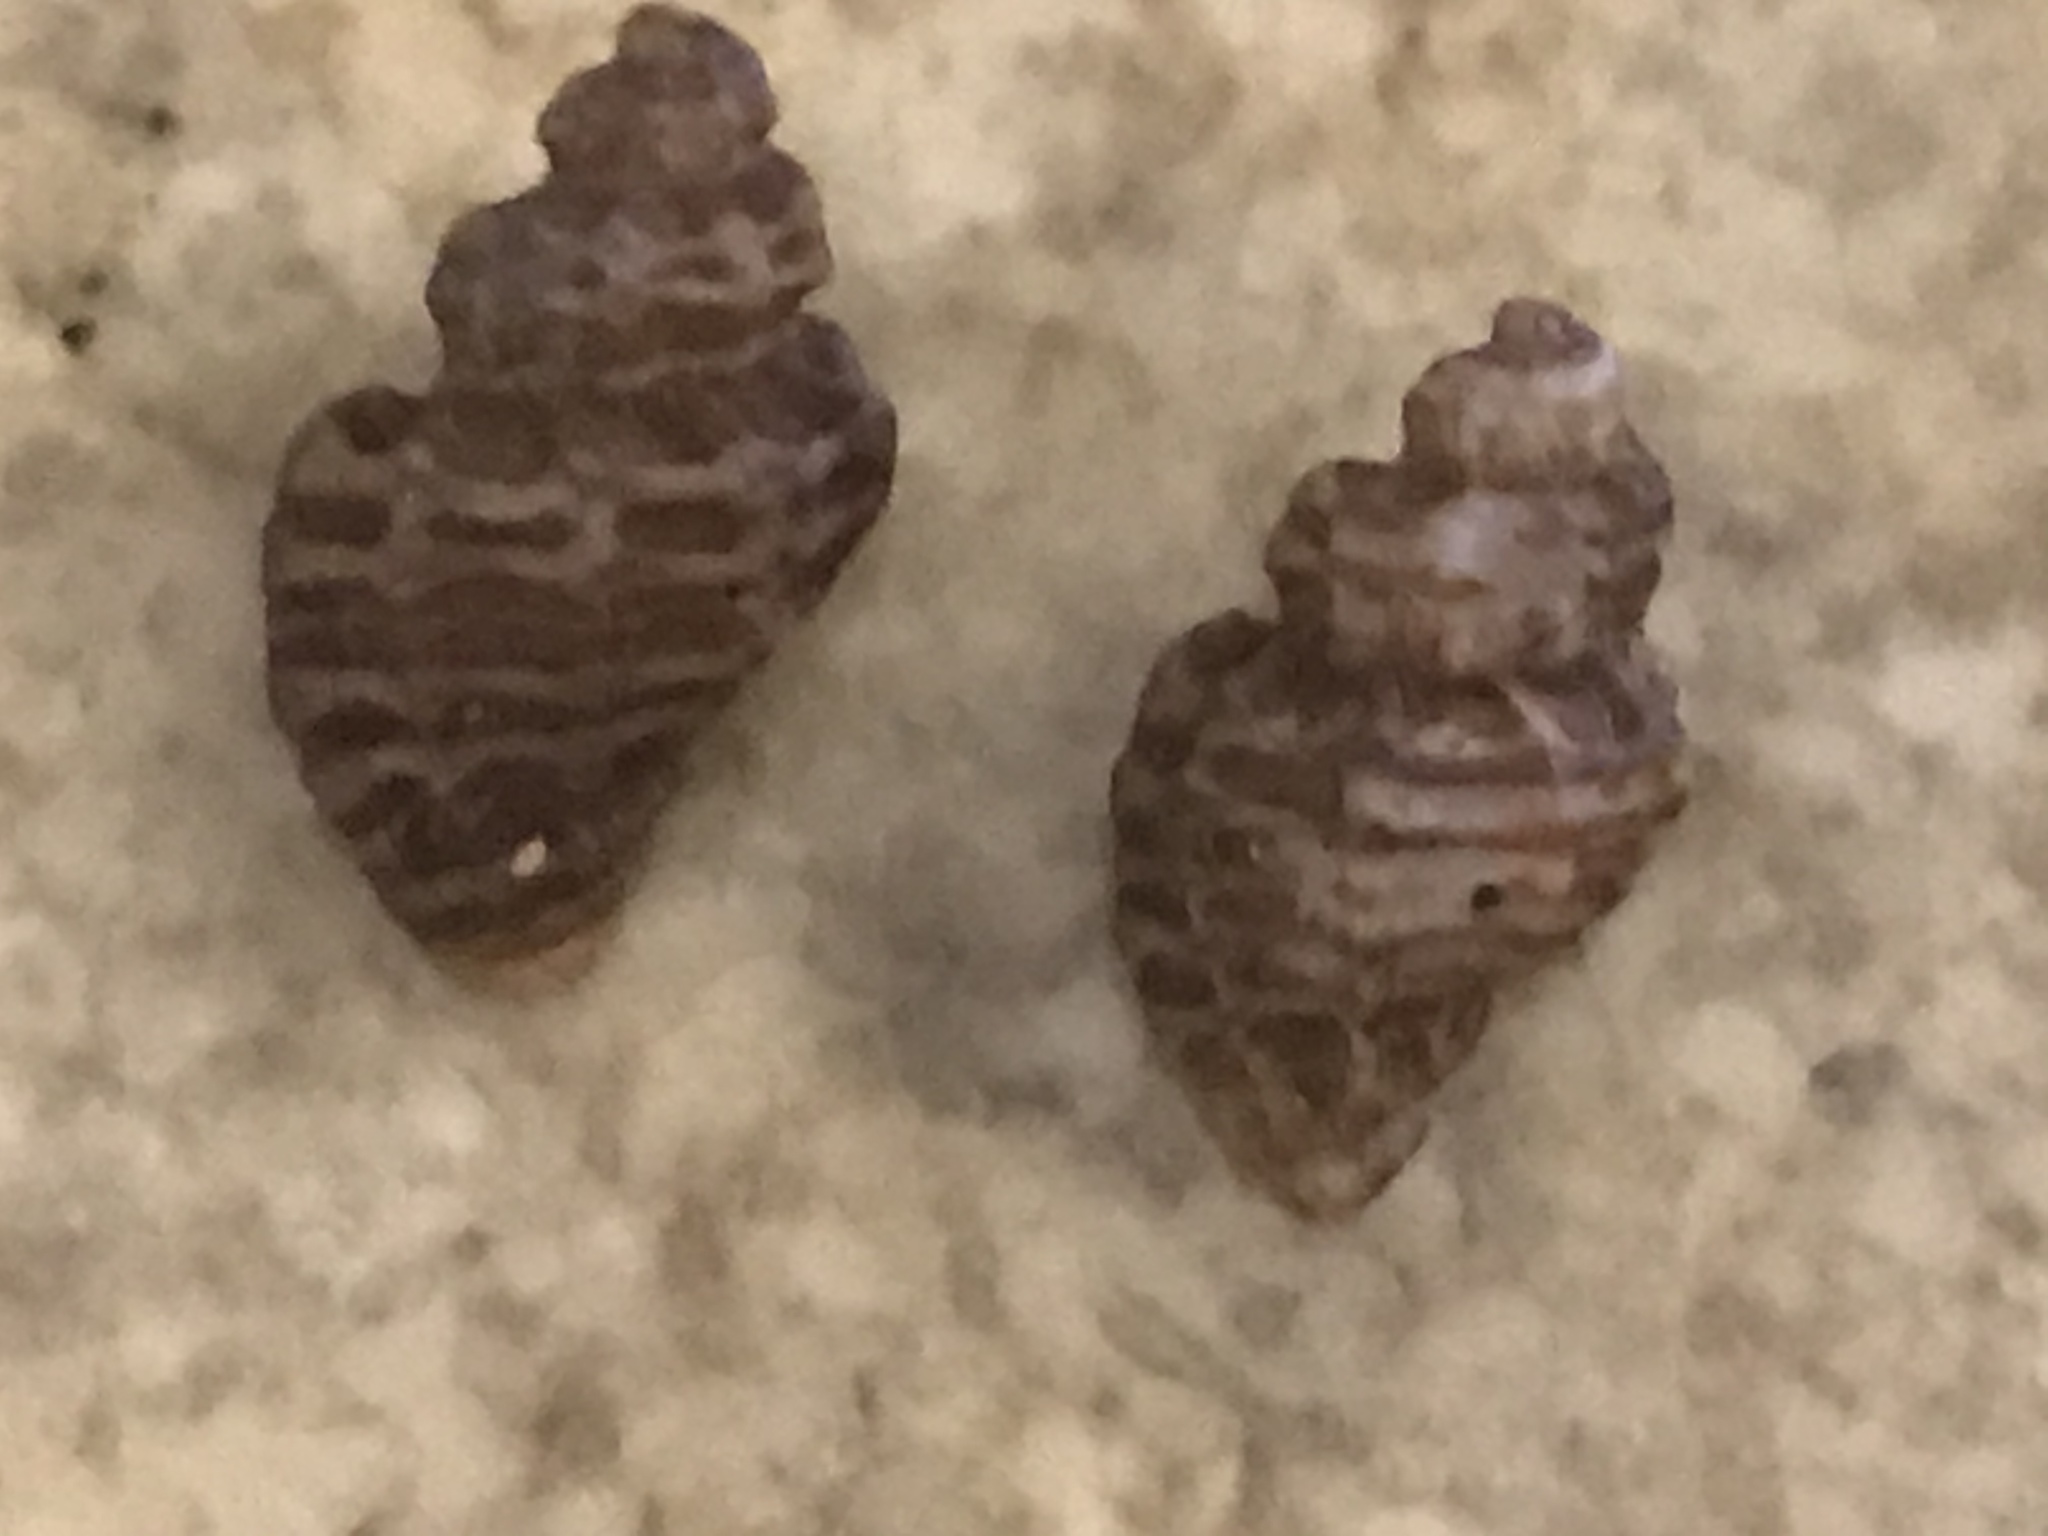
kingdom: Animalia
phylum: Mollusca
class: Gastropoda
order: Neogastropoda
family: Muricidae
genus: Paciocinebrina
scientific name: Paciocinebrina atropurpurea
